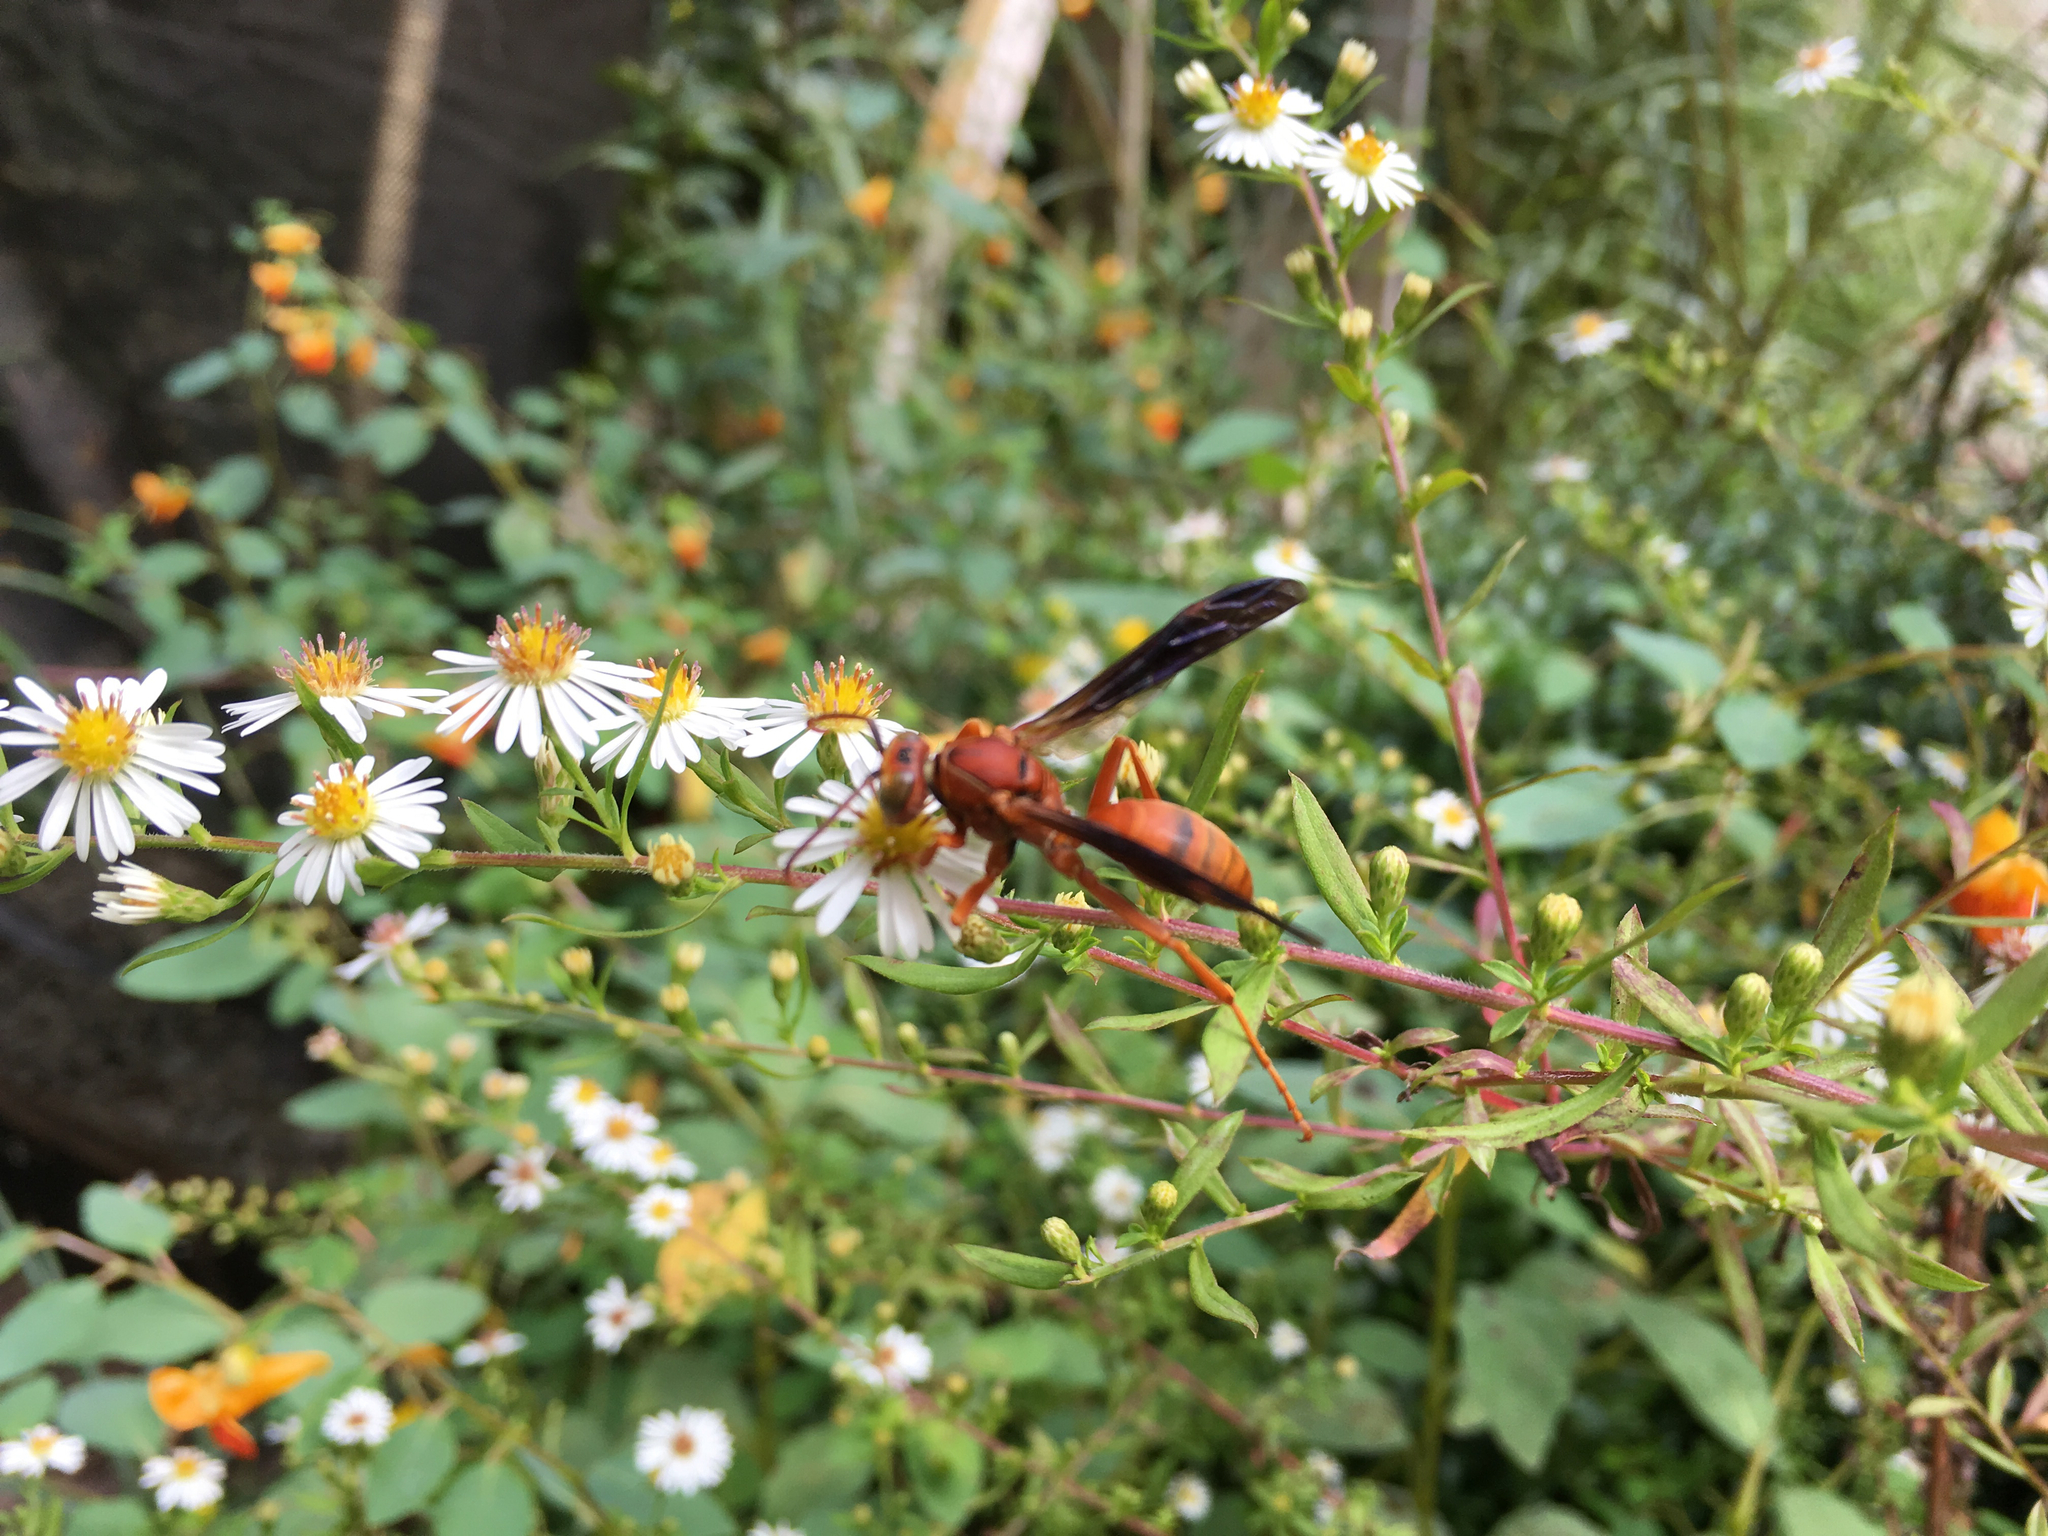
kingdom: Animalia
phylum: Arthropoda
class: Insecta
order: Hymenoptera
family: Eumenidae
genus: Polistes
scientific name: Polistes
